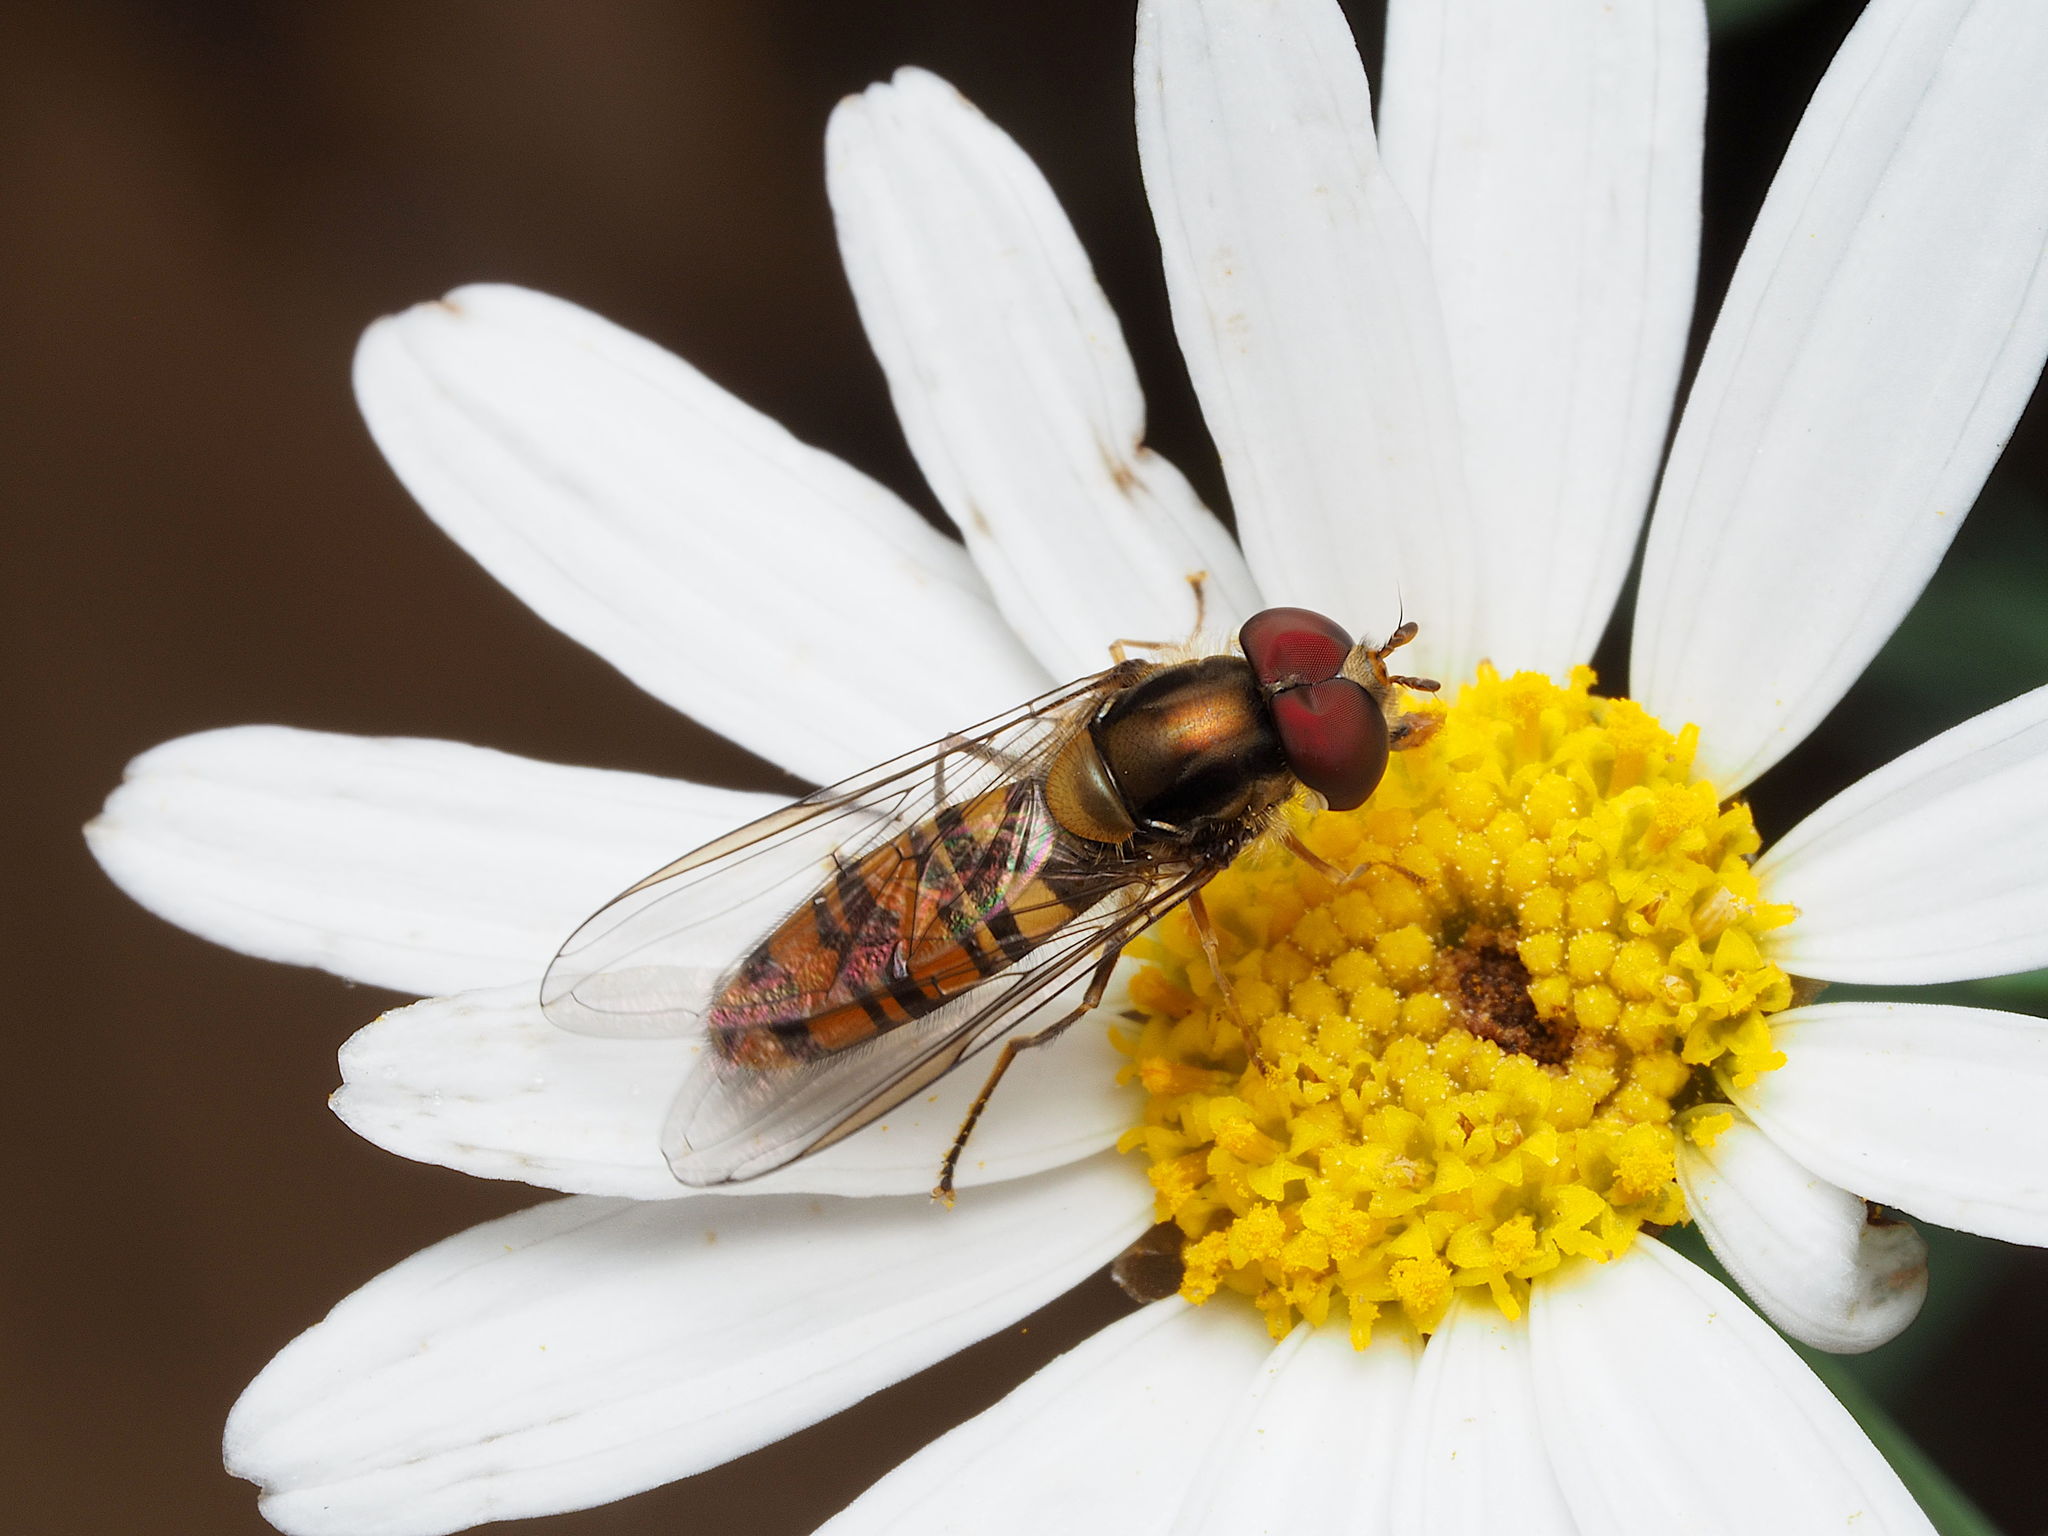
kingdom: Animalia
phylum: Arthropoda
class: Insecta
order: Diptera
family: Syrphidae
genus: Episyrphus
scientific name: Episyrphus balteatus
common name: Marmalade hoverfly
